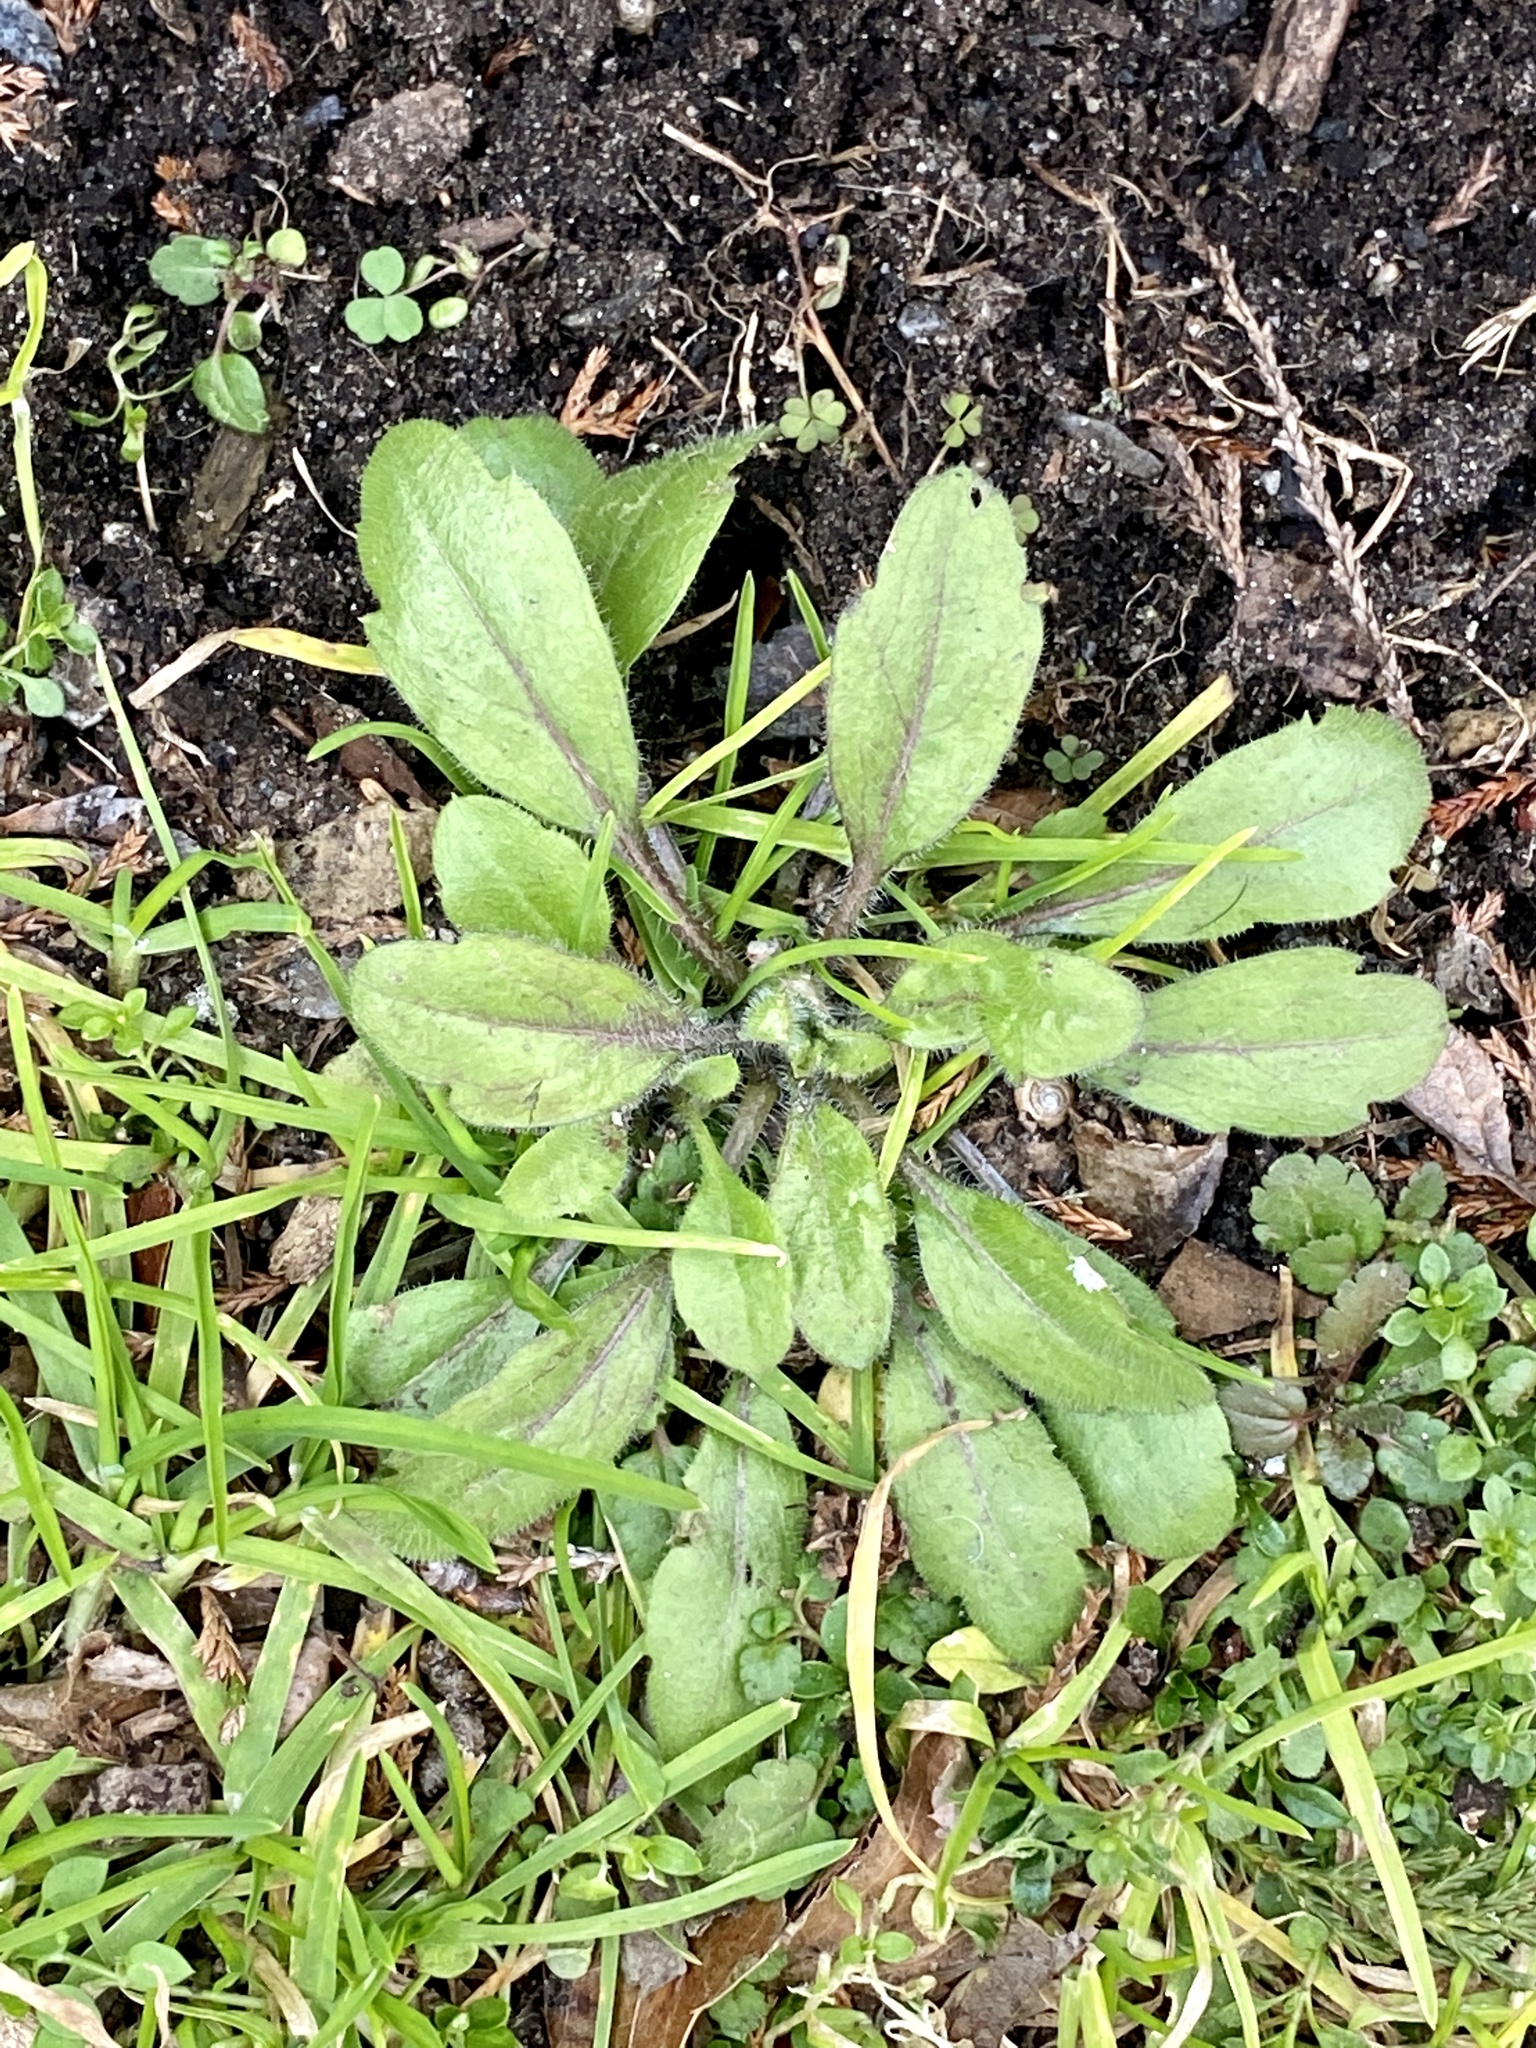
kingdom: Plantae
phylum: Tracheophyta
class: Magnoliopsida
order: Asterales
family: Asteraceae
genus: Erigeron
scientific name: Erigeron canadensis
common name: Canadian fleabane
